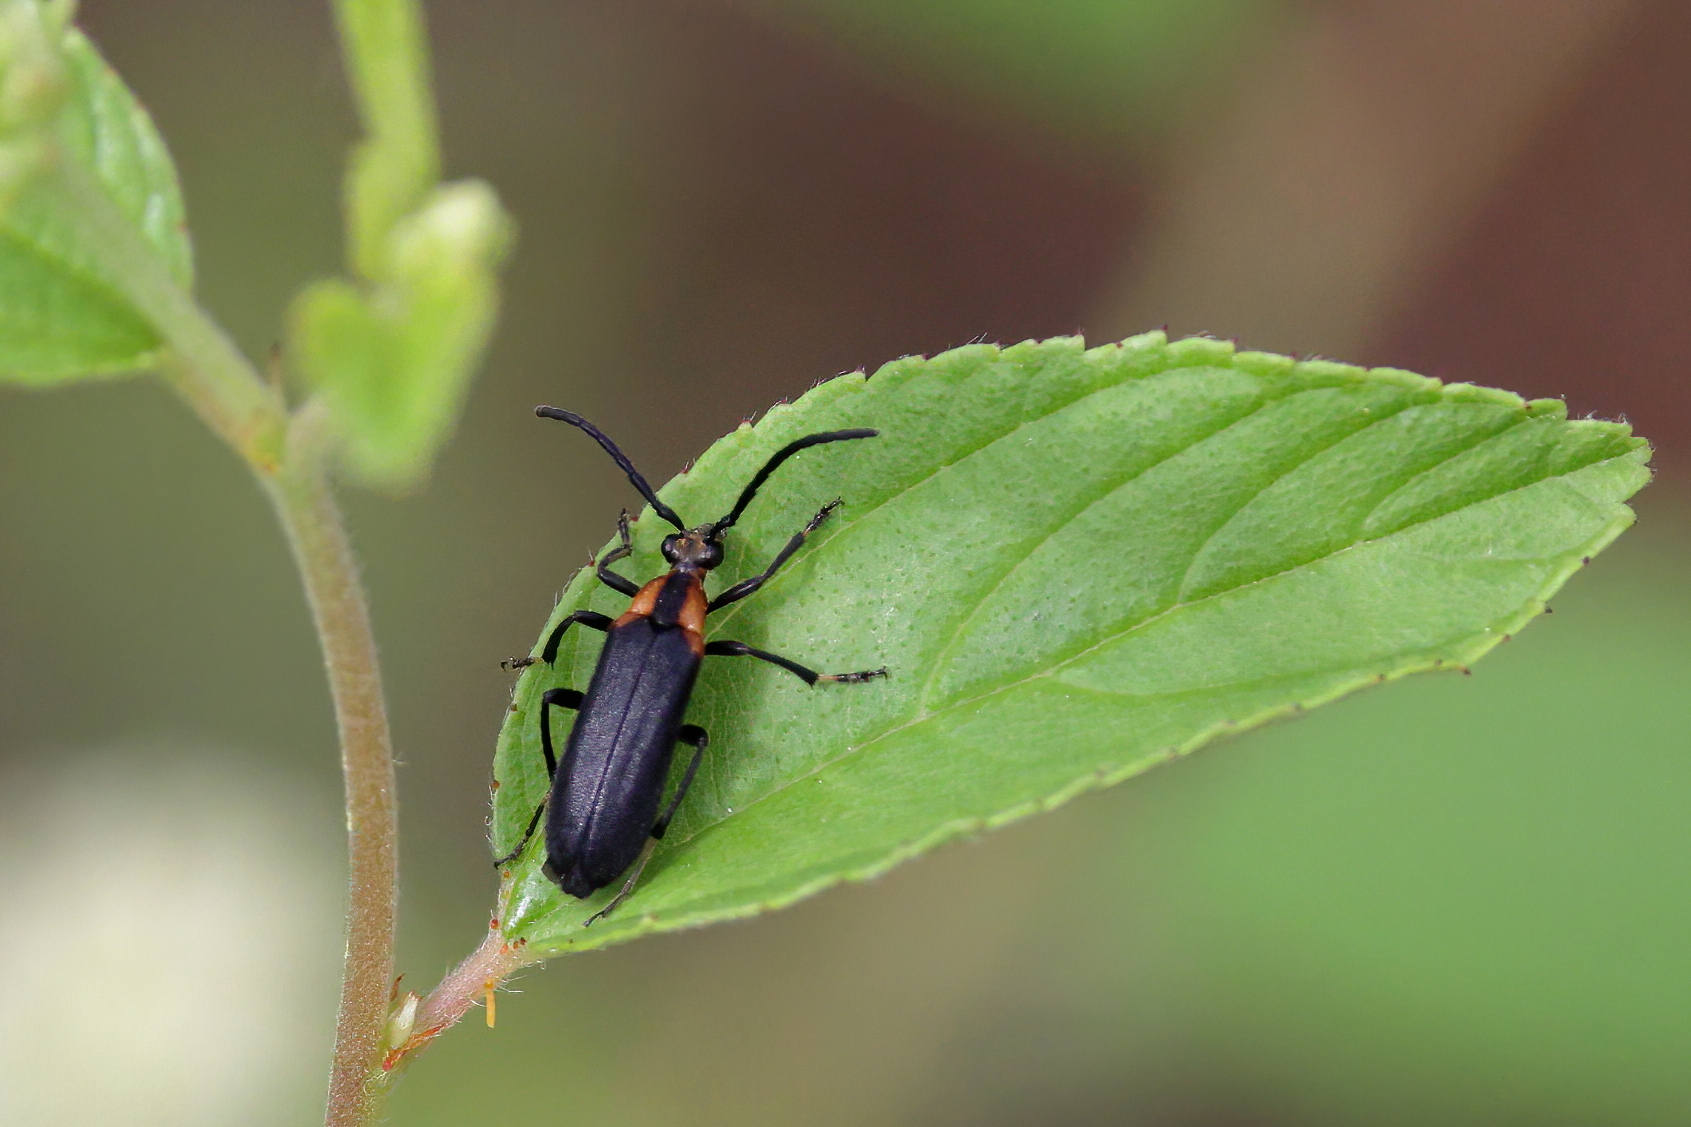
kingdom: Animalia
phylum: Arthropoda
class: Insecta
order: Coleoptera
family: Cerambycidae
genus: Lycochoriolaus
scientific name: Lycochoriolaus lateralis
